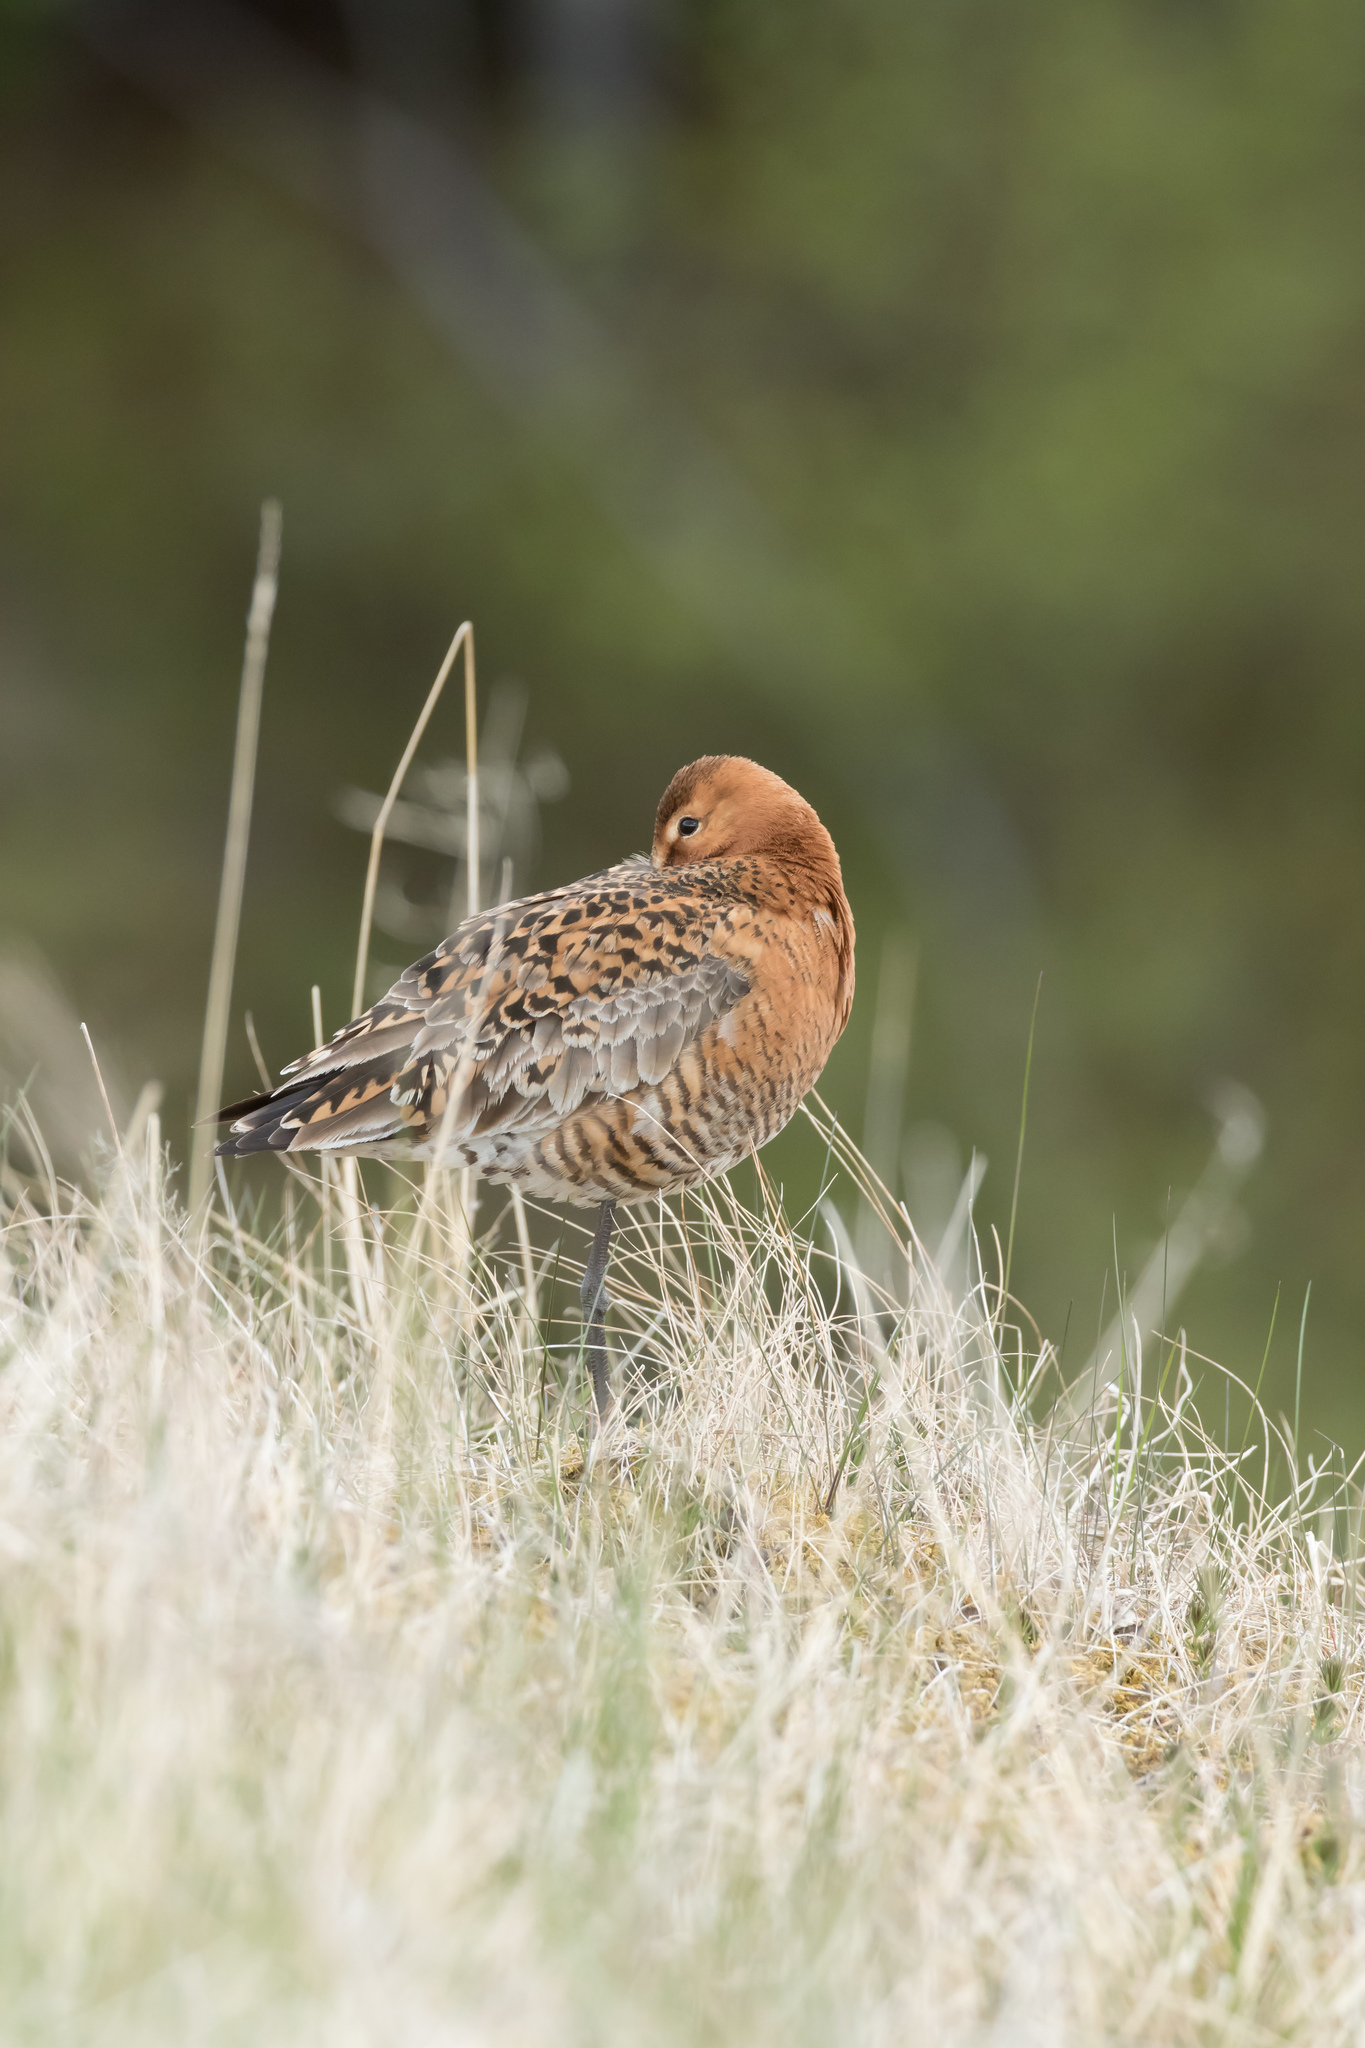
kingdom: Animalia
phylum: Chordata
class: Aves
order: Charadriiformes
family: Scolopacidae
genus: Limosa
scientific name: Limosa limosa
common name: Black-tailed godwit
